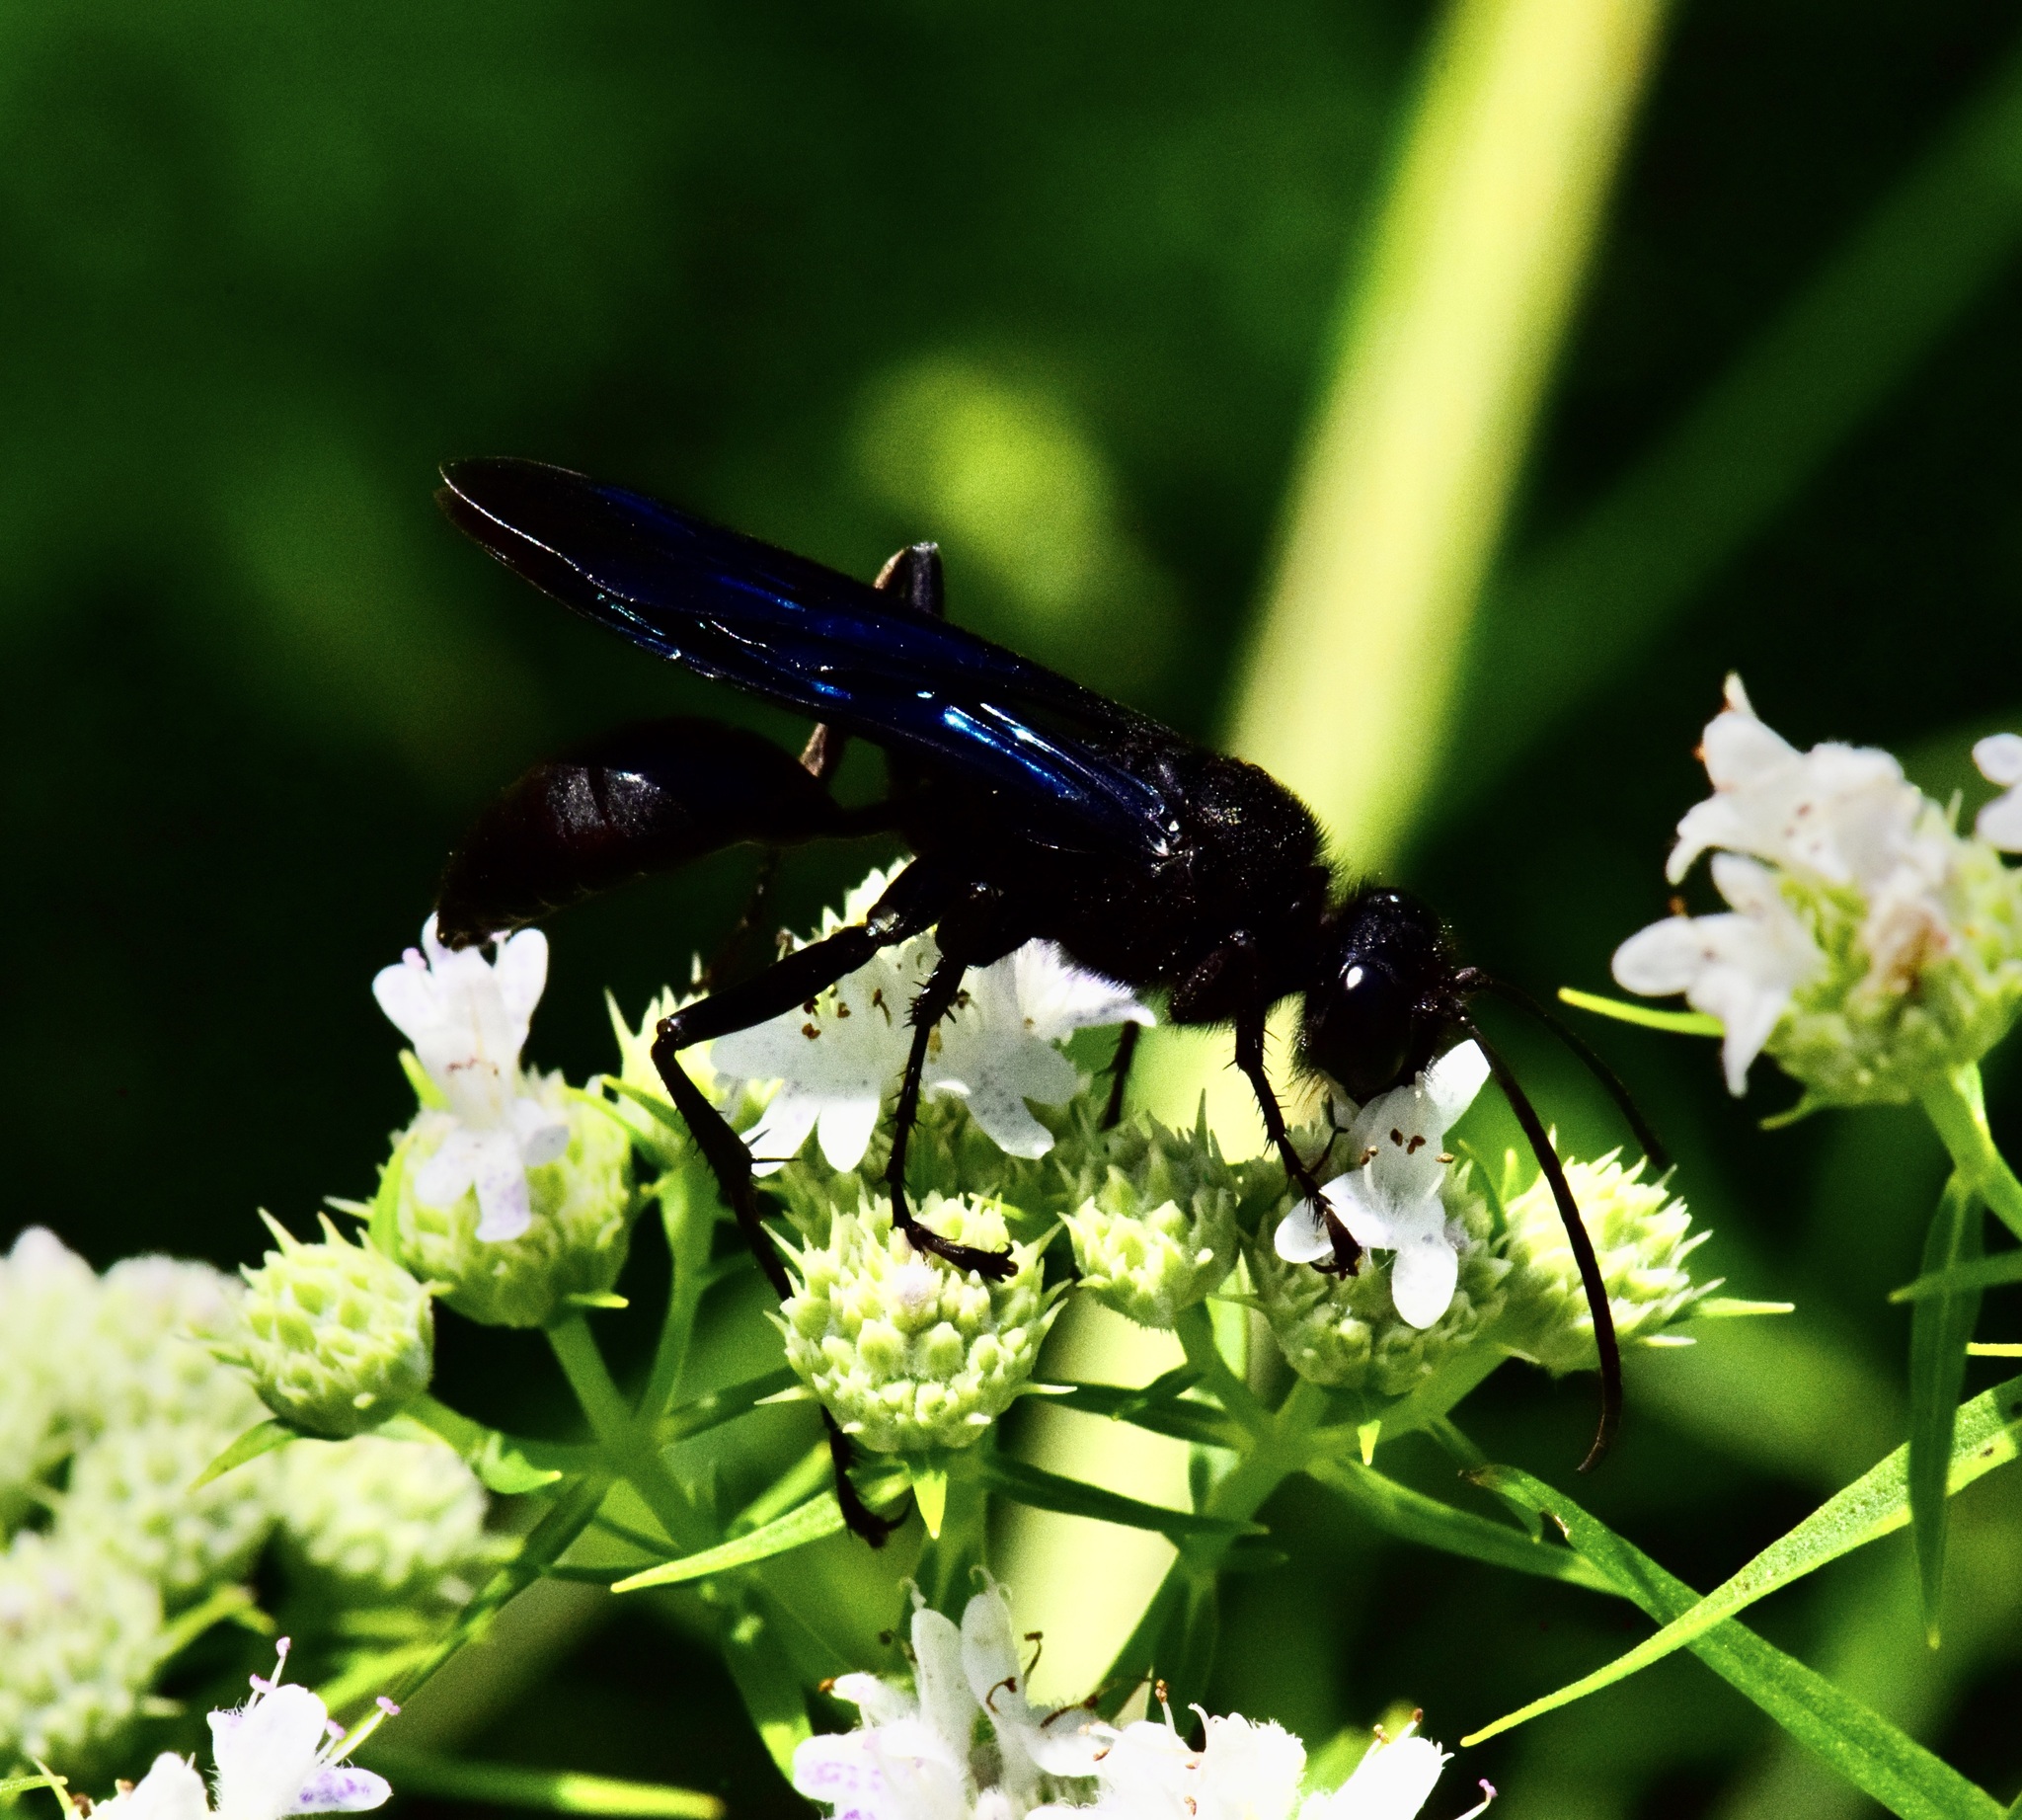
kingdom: Animalia
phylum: Arthropoda
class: Insecta
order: Hymenoptera
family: Sphecidae
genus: Sphex
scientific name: Sphex pensylvanicus
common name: Great black digger wasp
